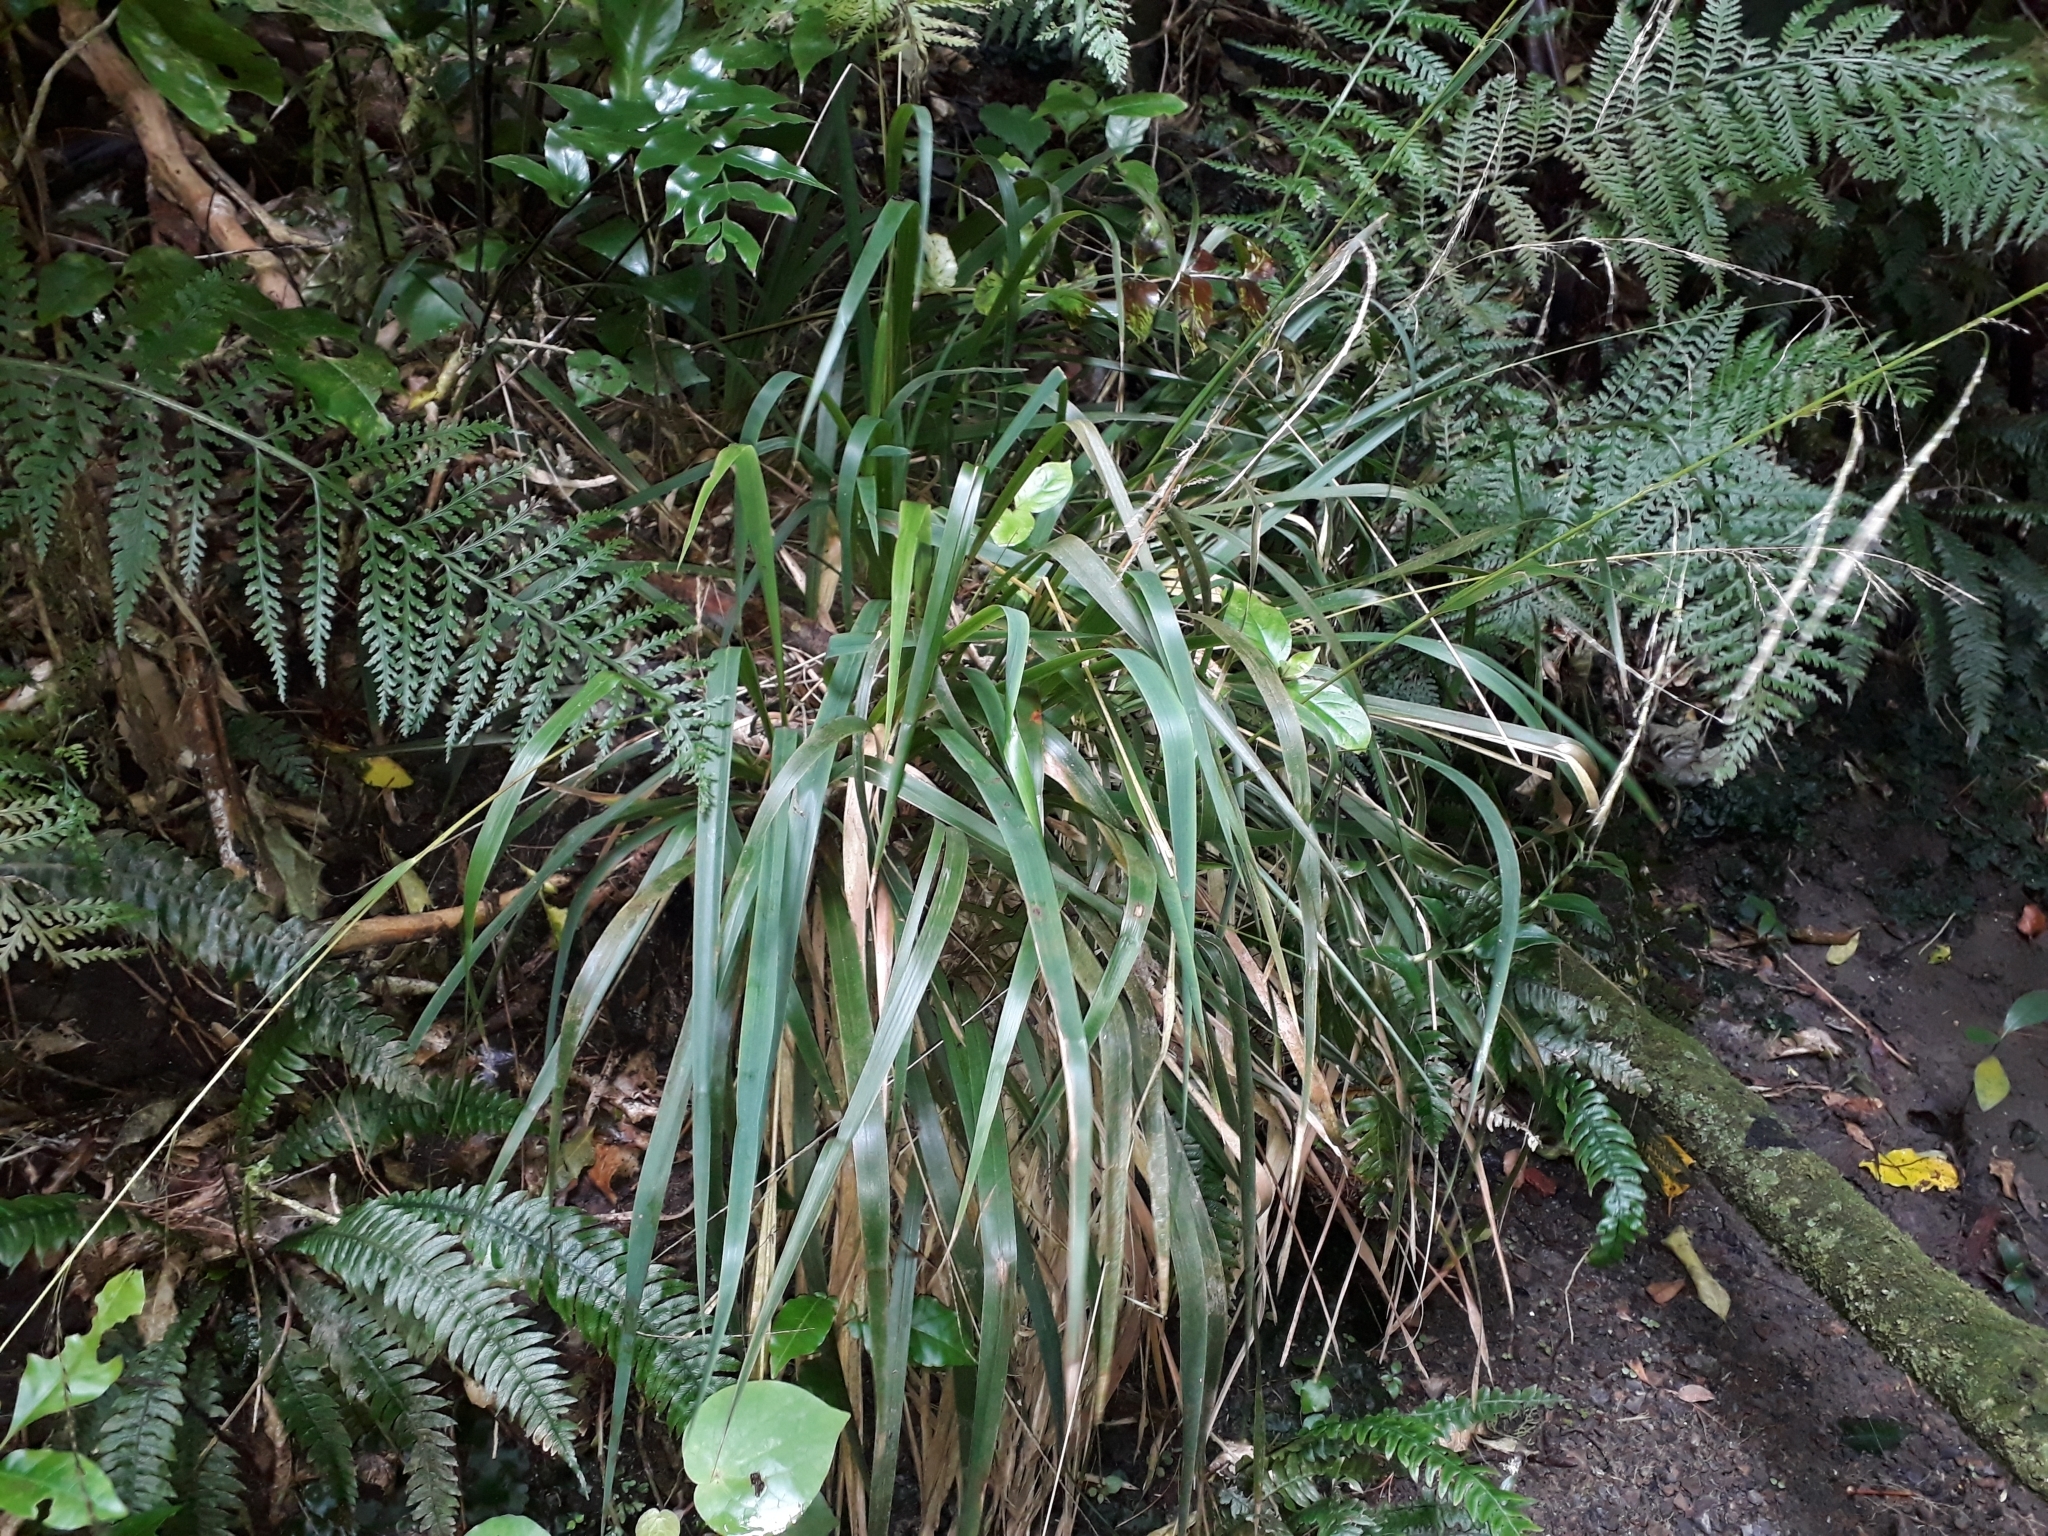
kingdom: Plantae
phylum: Tracheophyta
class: Liliopsida
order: Poales
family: Poaceae
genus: Ehrharta
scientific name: Ehrharta diplax
